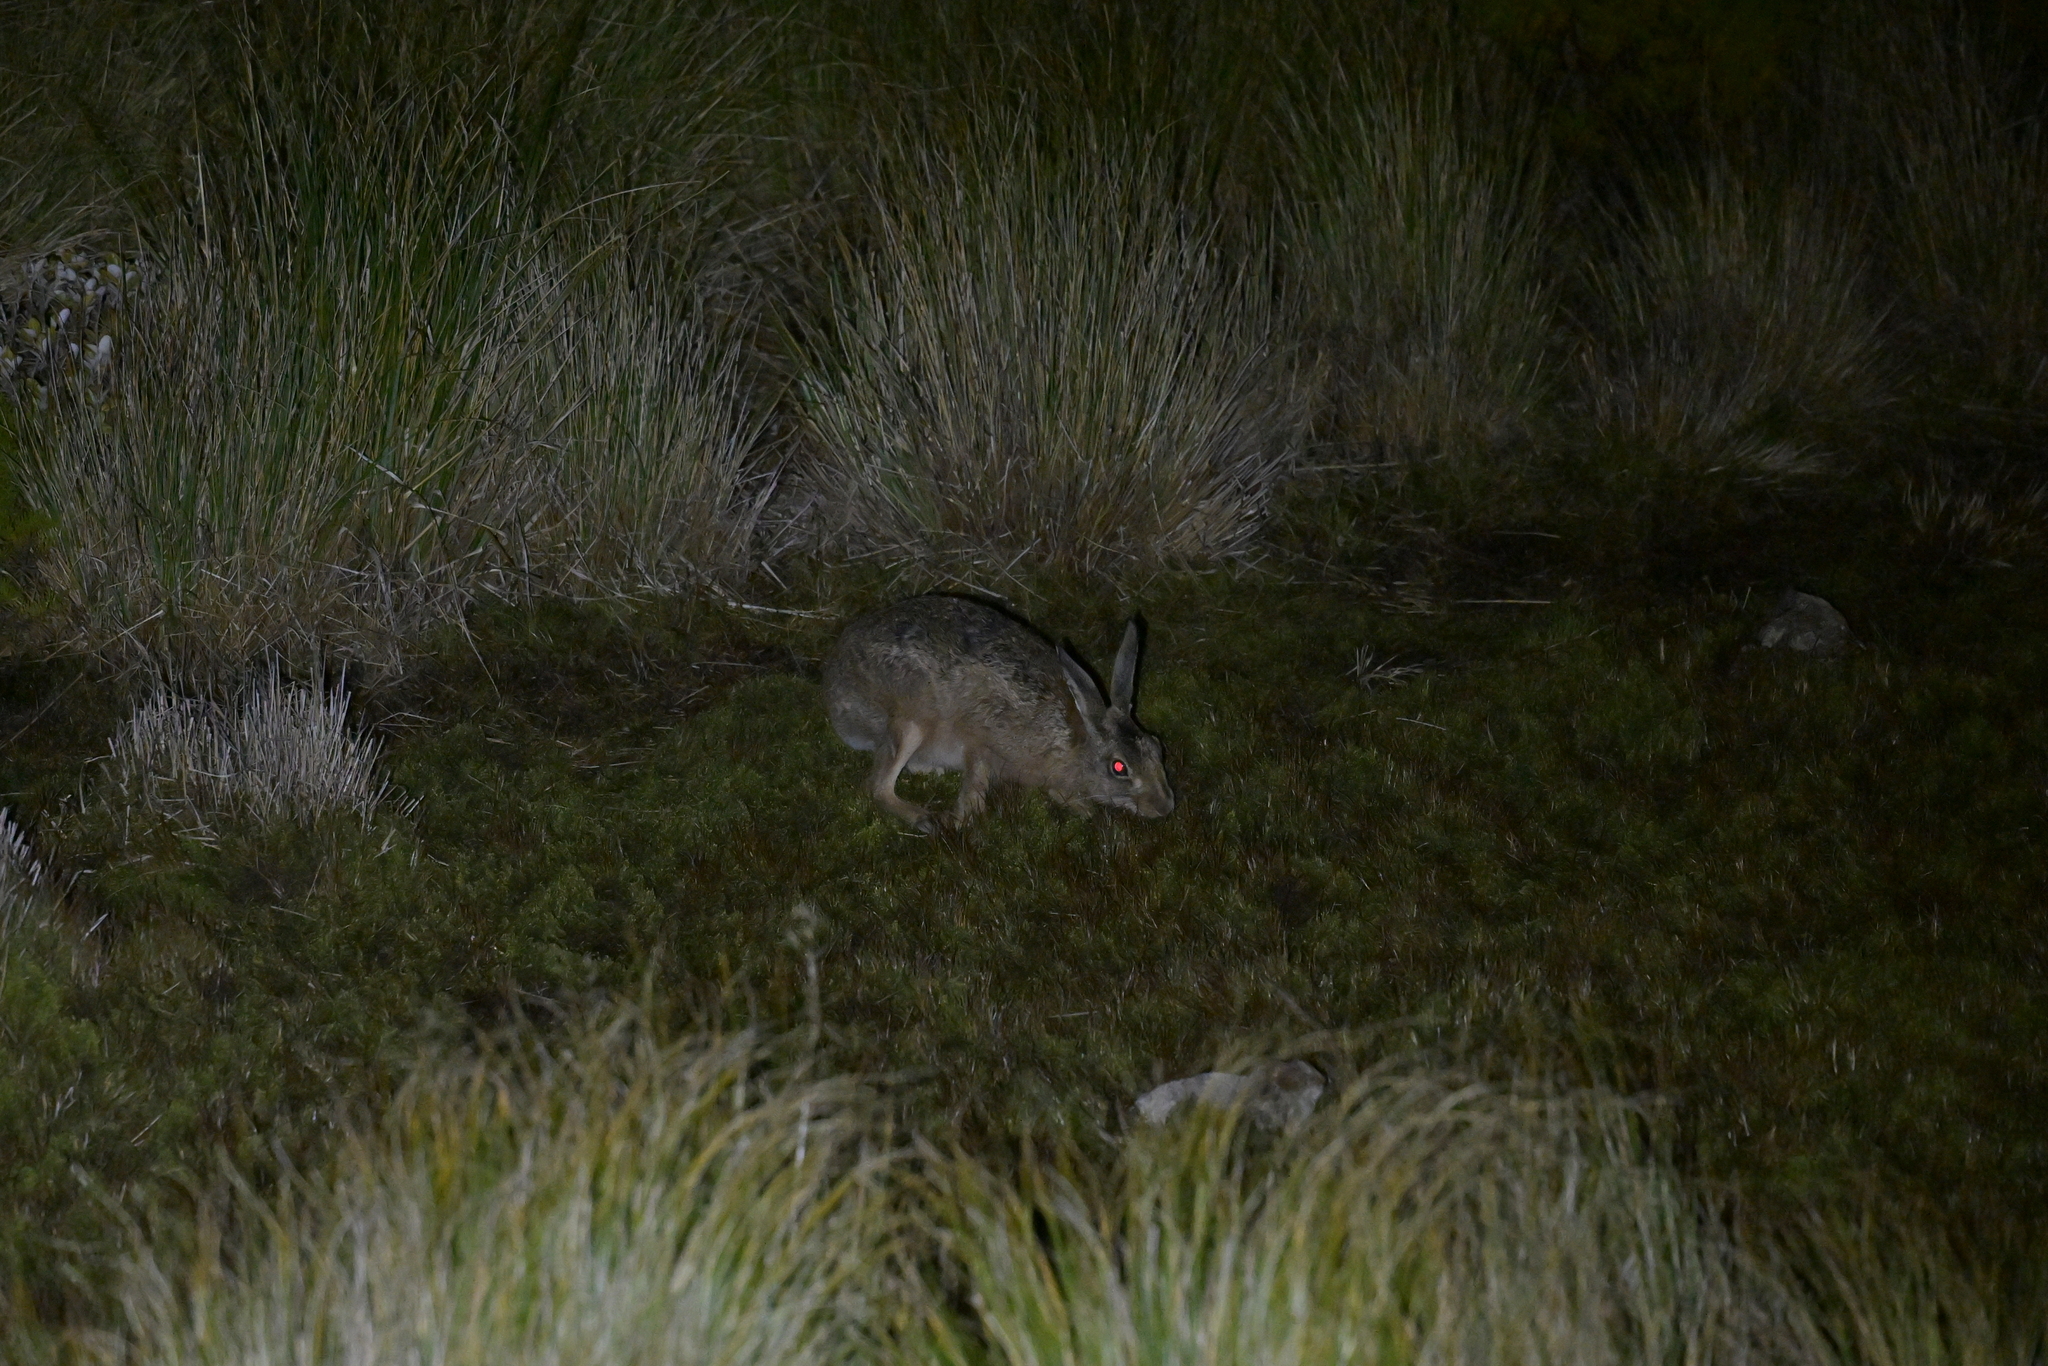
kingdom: Animalia
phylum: Chordata
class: Mammalia
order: Lagomorpha
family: Leporidae
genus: Lepus
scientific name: Lepus europaeus
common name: European hare
